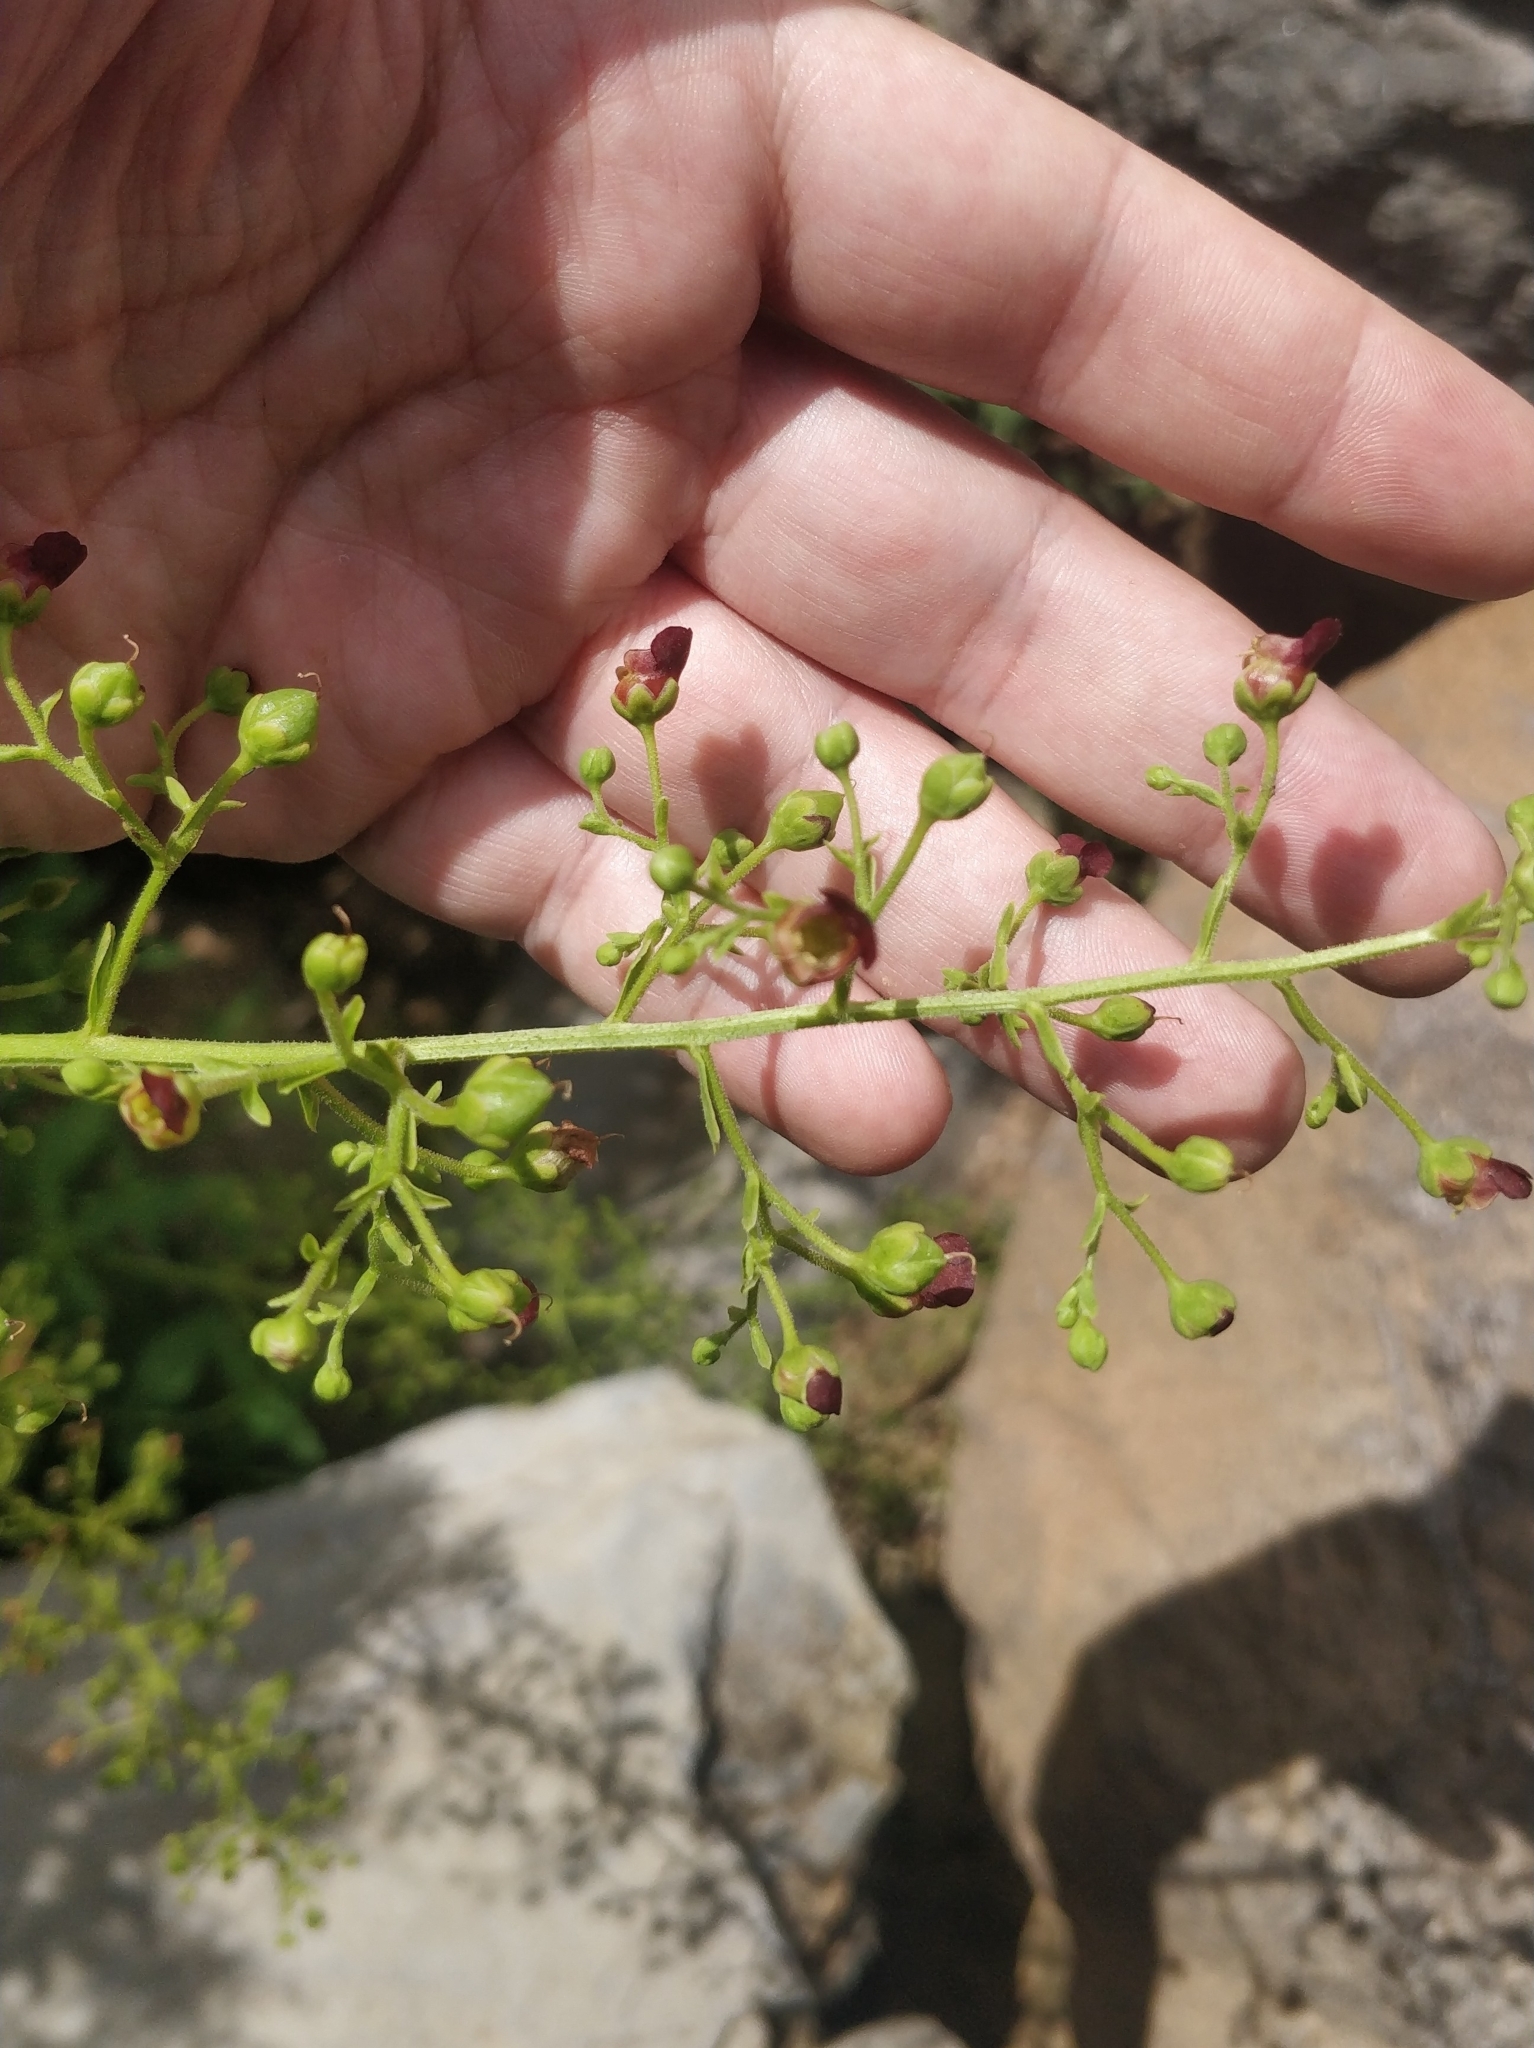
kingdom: Plantae
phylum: Tracheophyta
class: Magnoliopsida
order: Lamiales
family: Scrophulariaceae
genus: Scrophularia
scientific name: Scrophularia hirta
